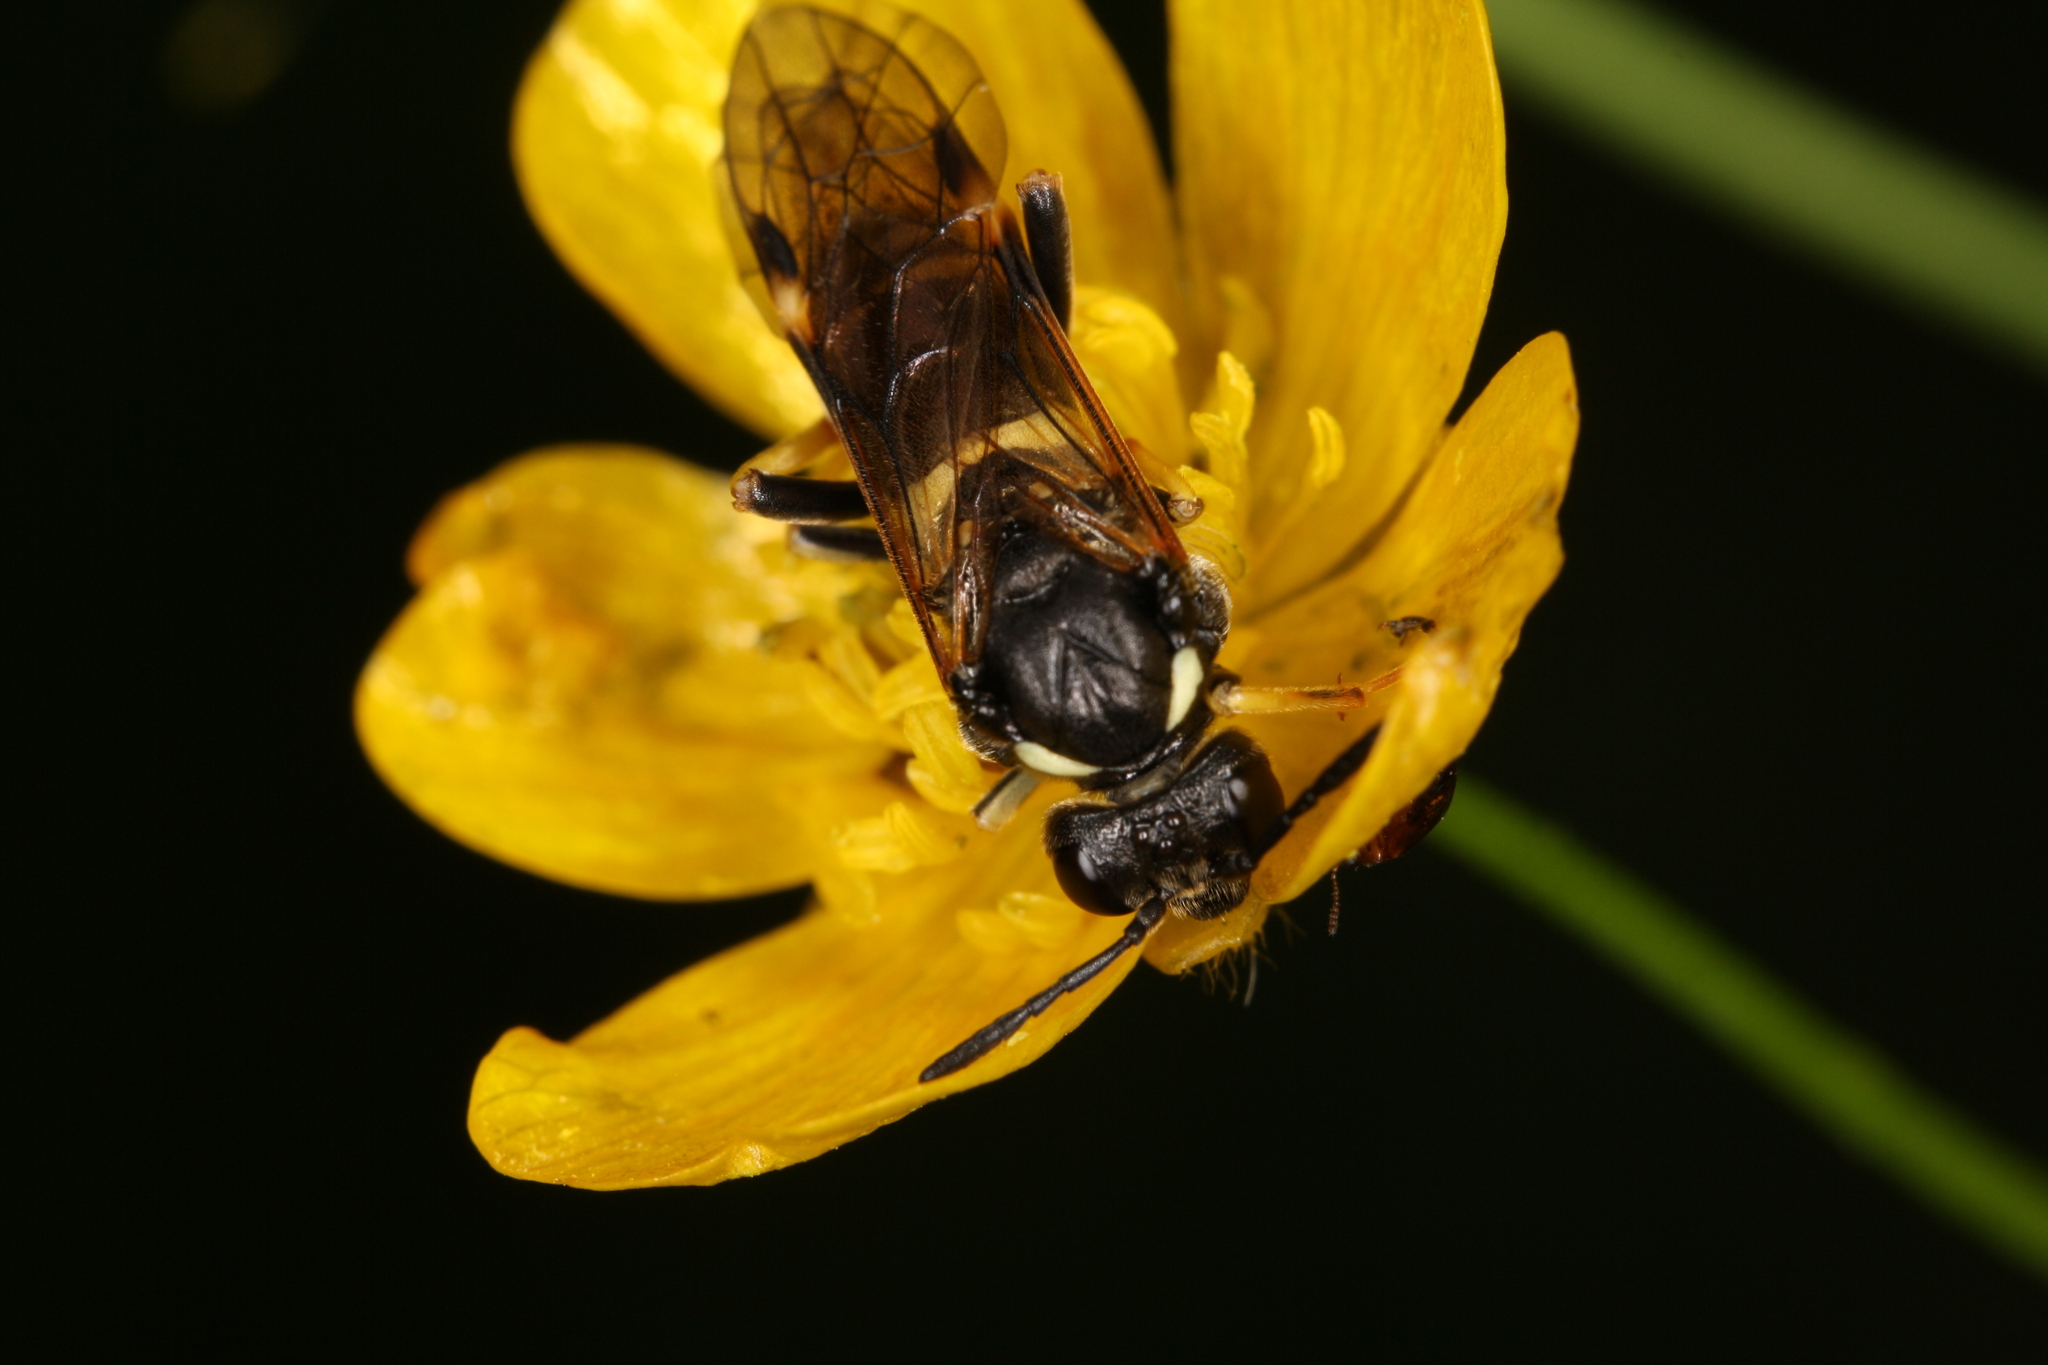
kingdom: Animalia
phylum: Arthropoda
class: Insecta
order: Hymenoptera
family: Tenthredinidae
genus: Tenthredo
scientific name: Tenthredo koehleri
